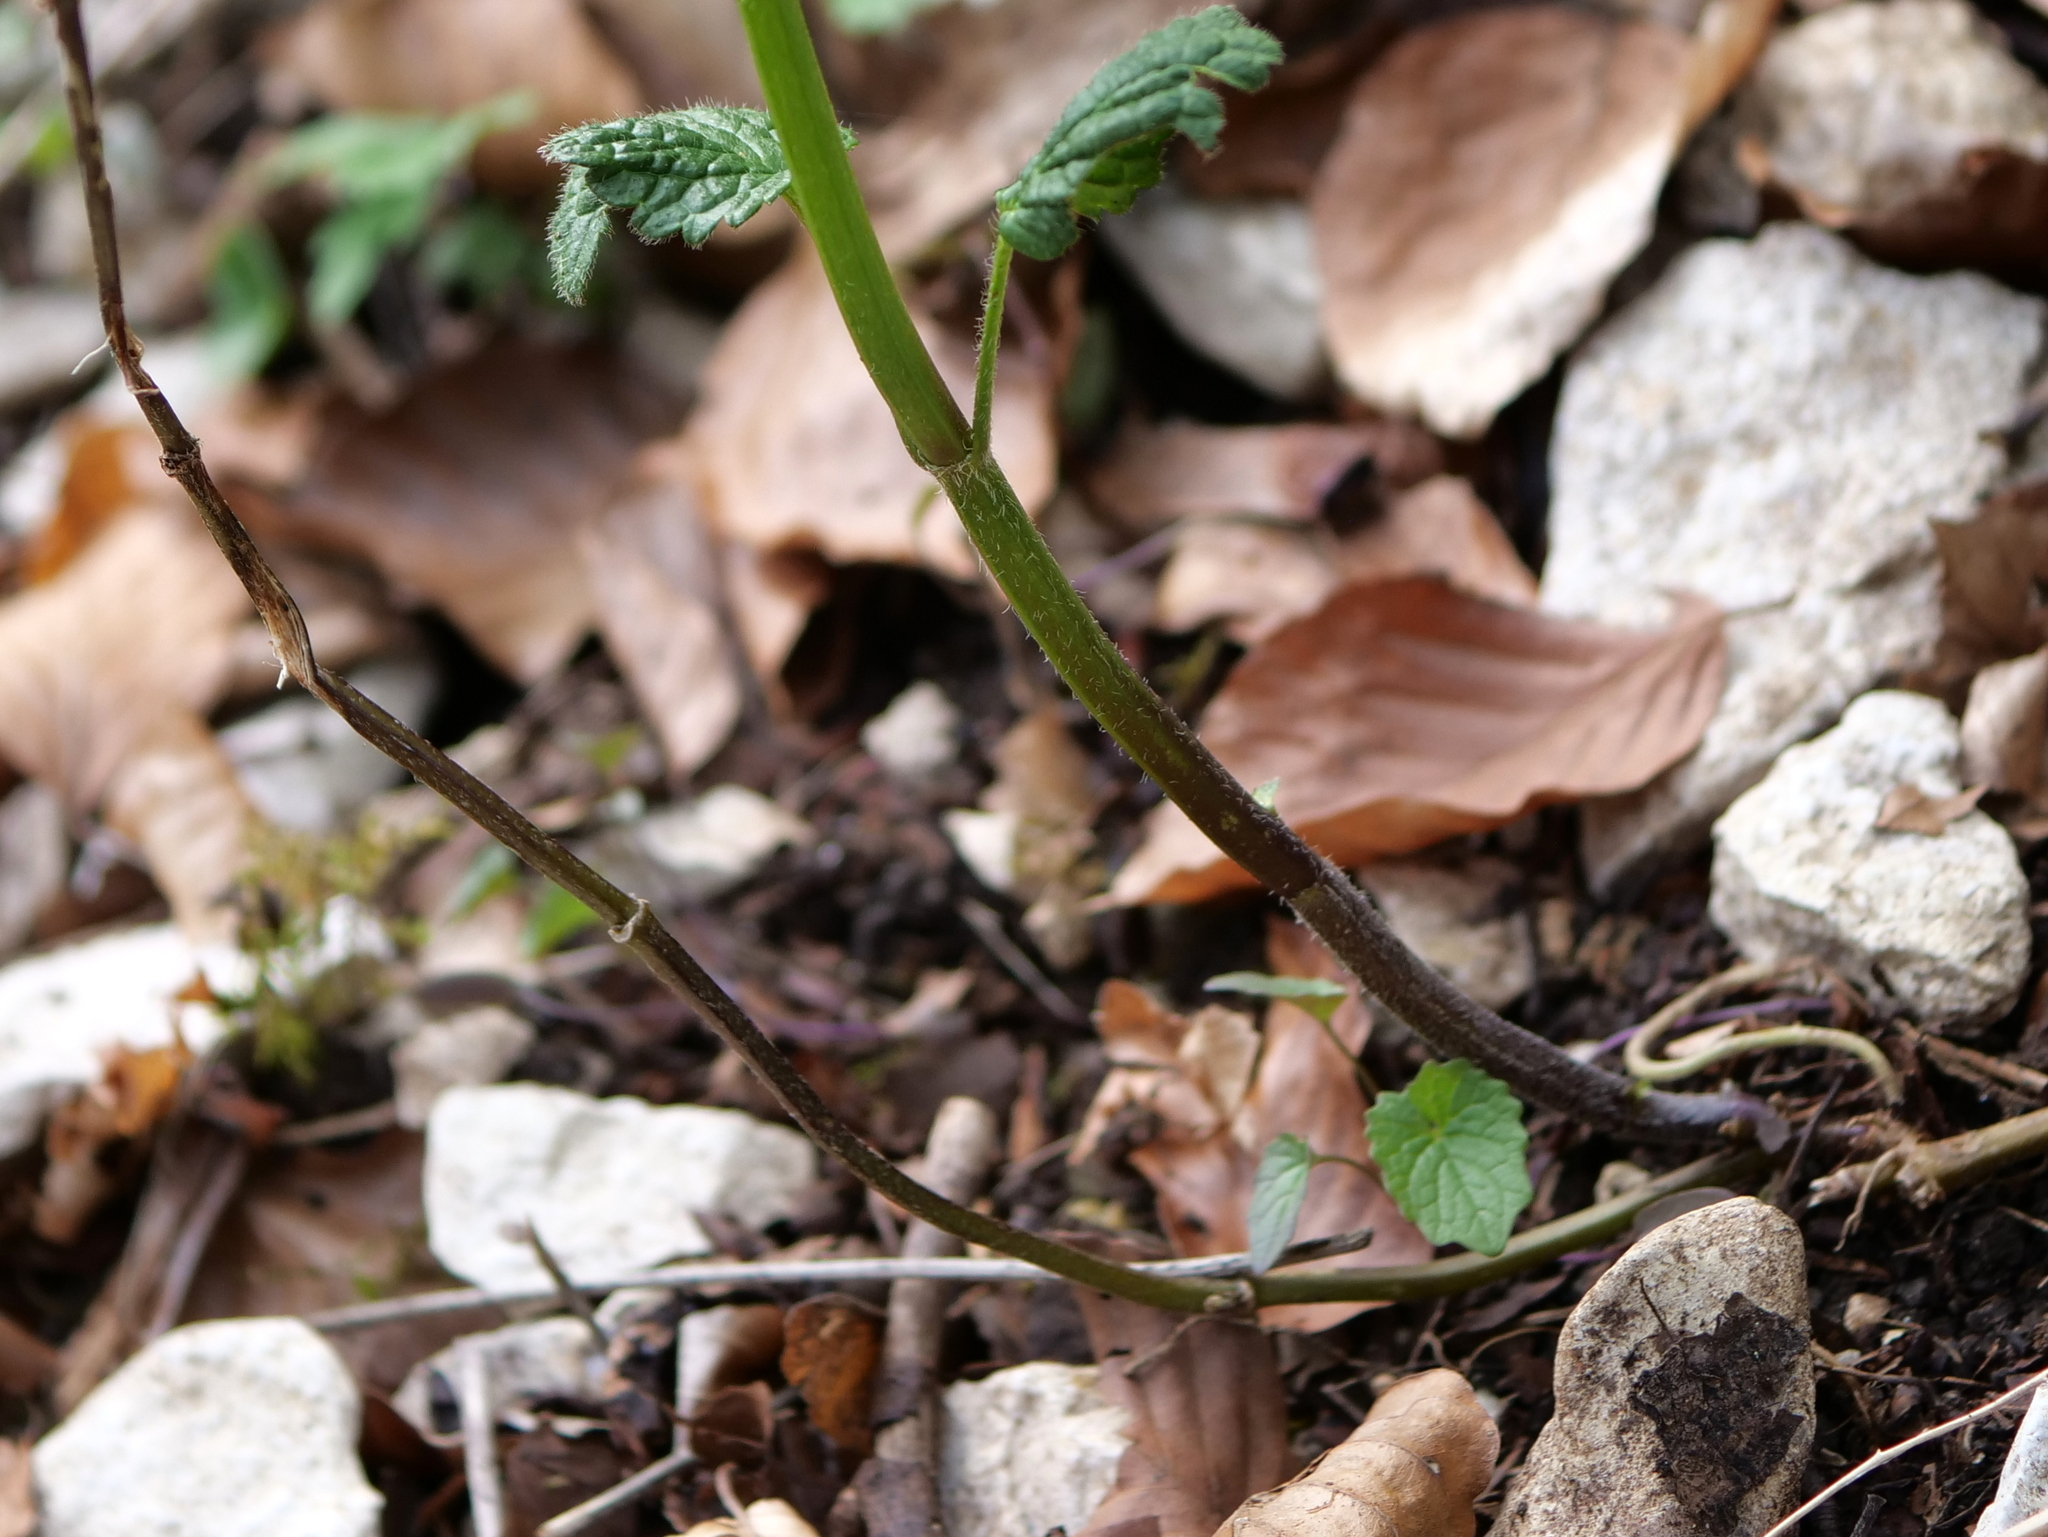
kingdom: Plantae
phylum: Tracheophyta
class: Magnoliopsida
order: Lamiales
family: Lamiaceae
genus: Lamium
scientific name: Lamium galeobdolon
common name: Yellow archangel
